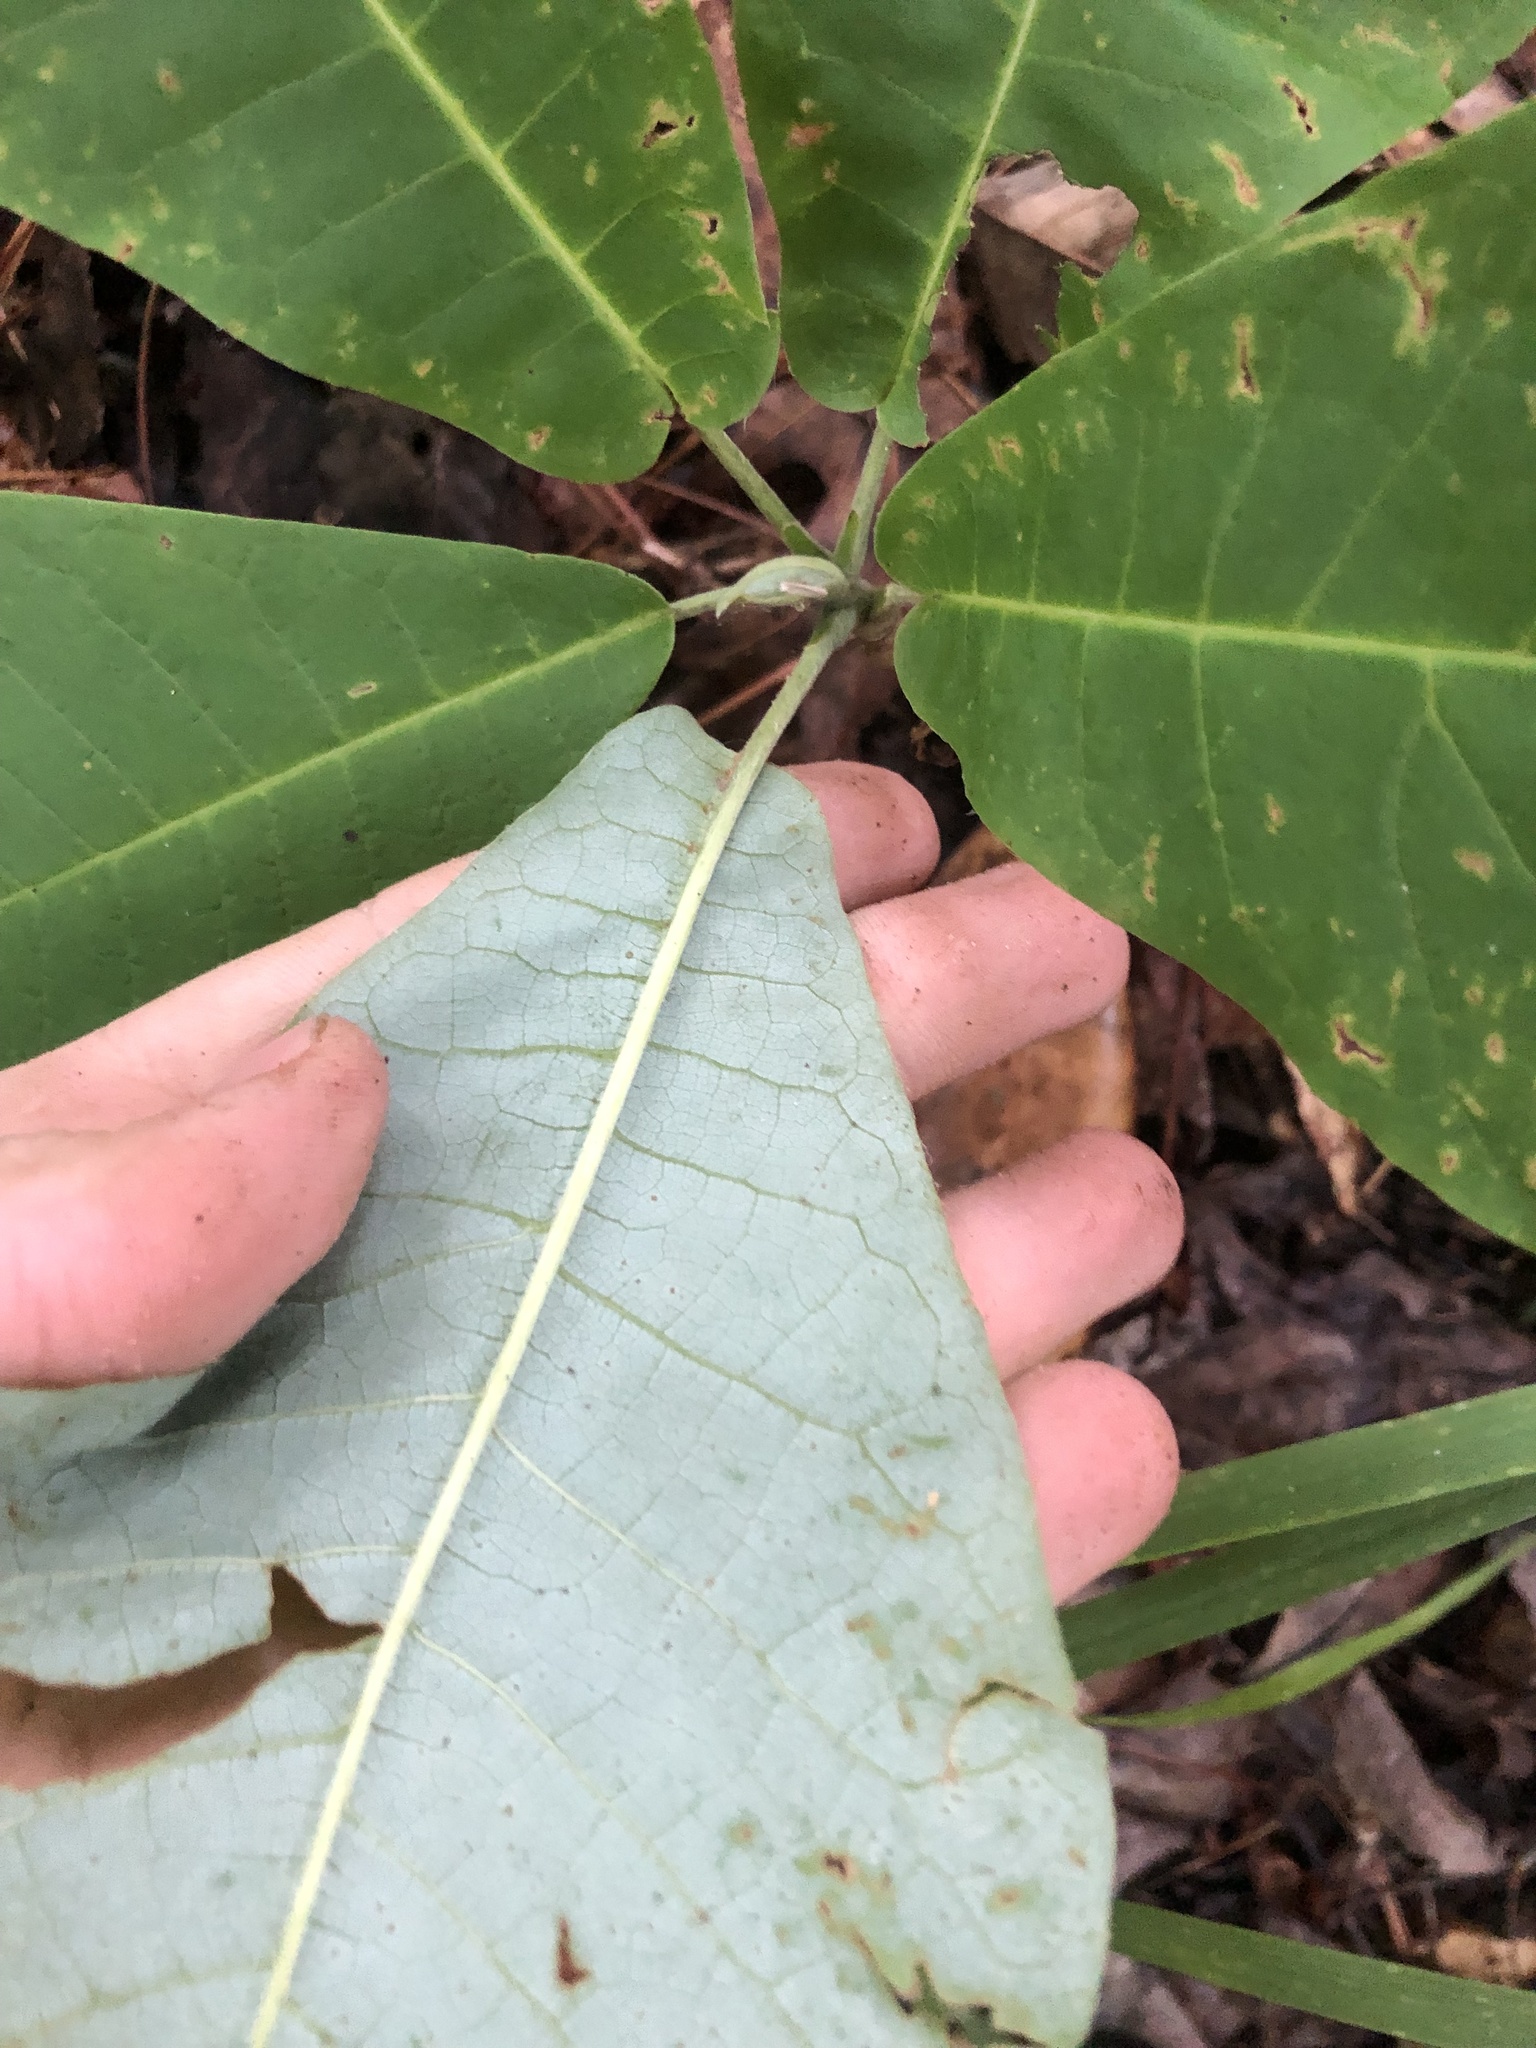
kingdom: Plantae
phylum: Tracheophyta
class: Magnoliopsida
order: Magnoliales
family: Magnoliaceae
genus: Magnolia
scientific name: Magnolia macrophylla
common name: Big-leaf magnolia
